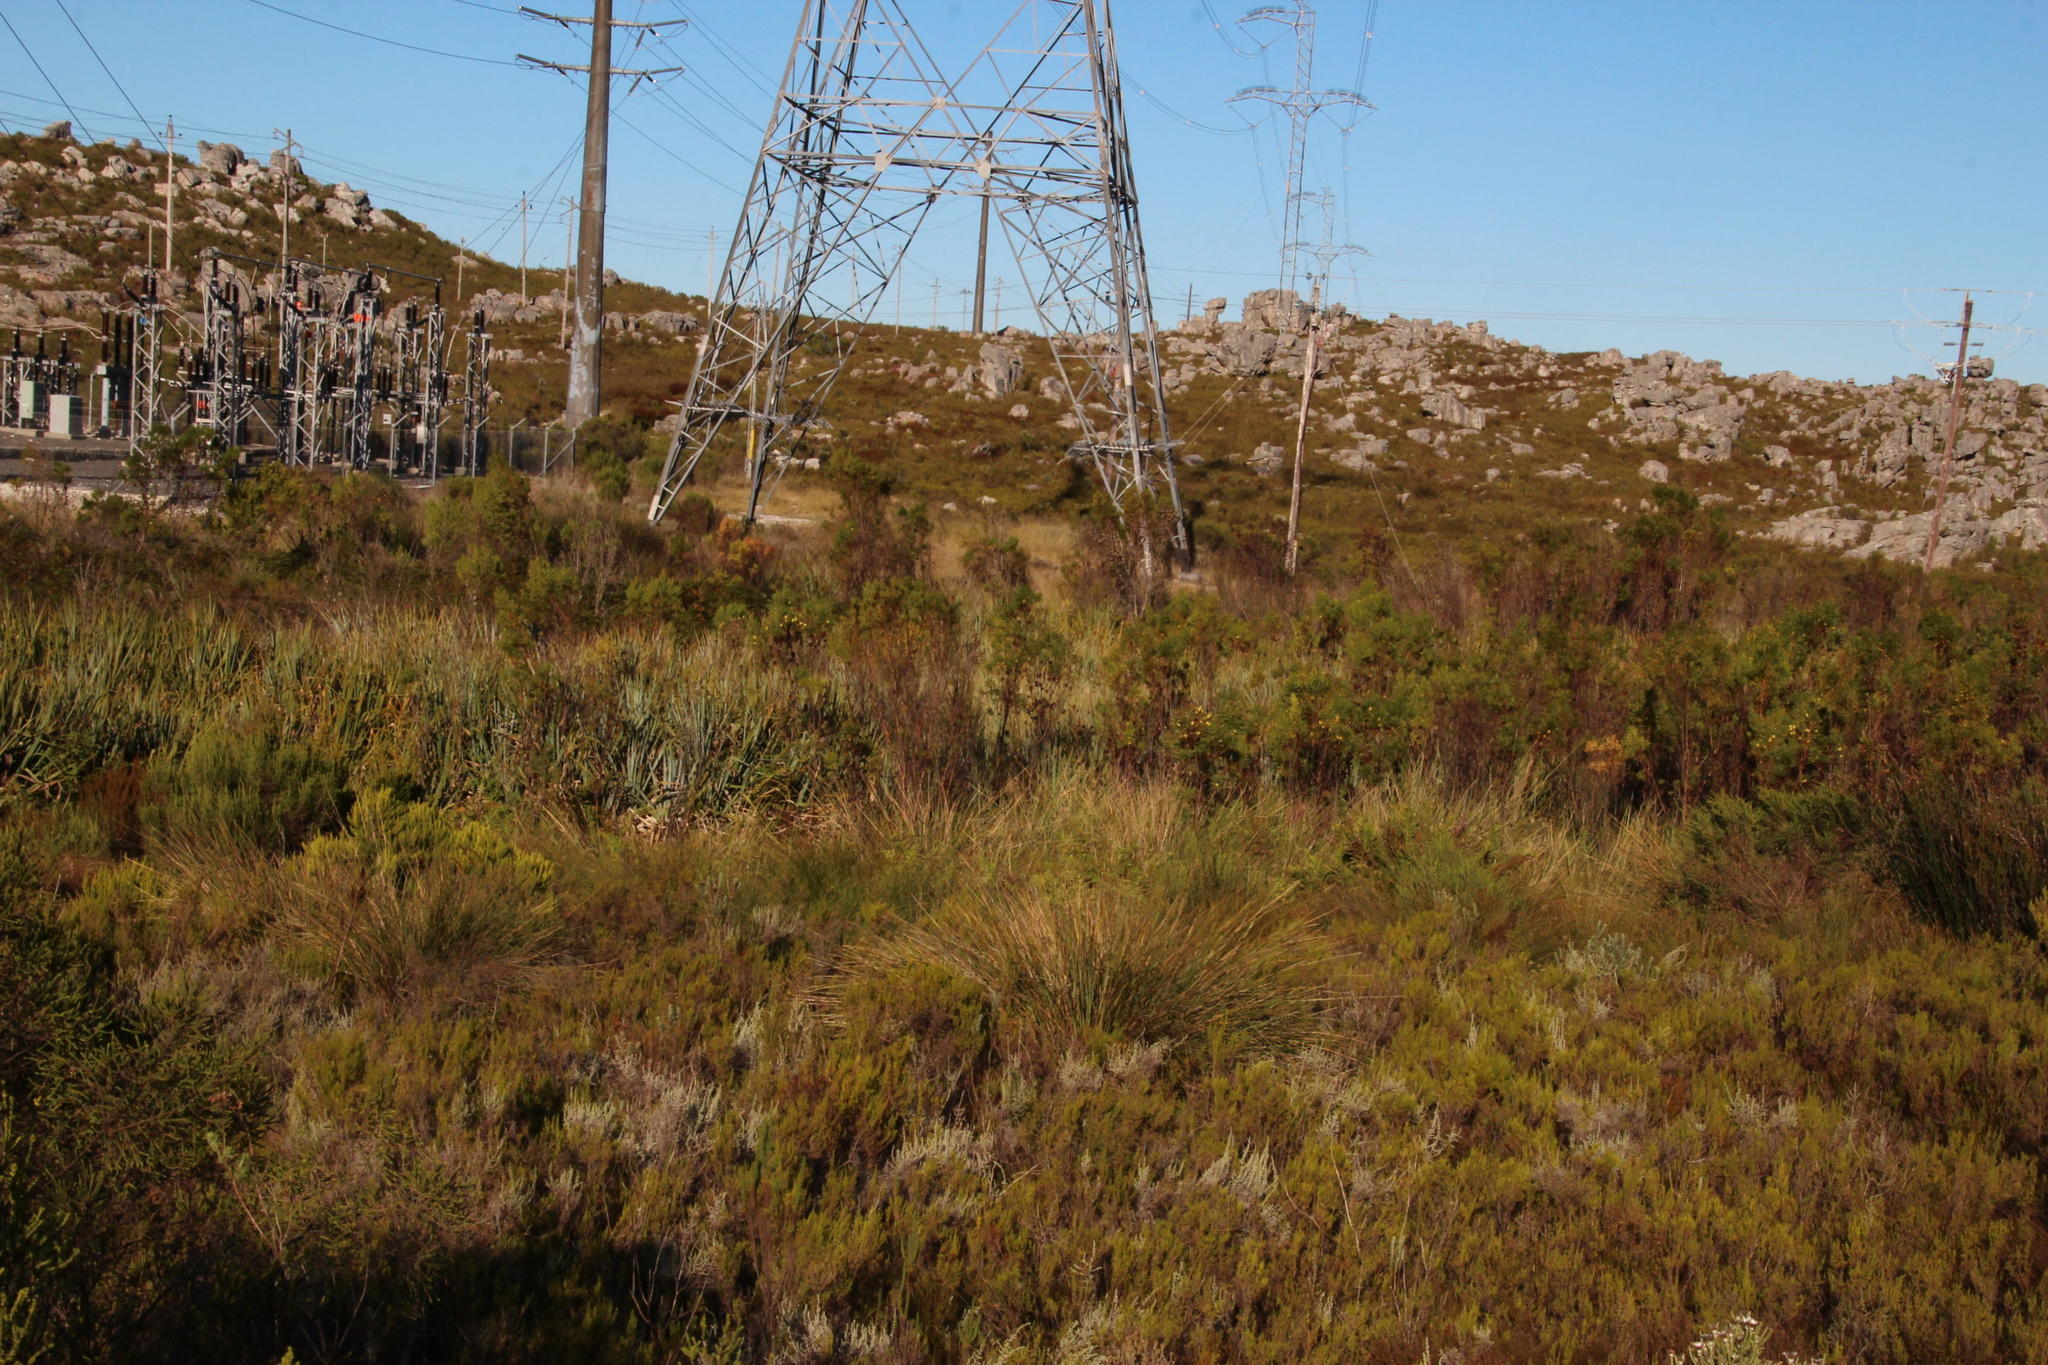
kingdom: Plantae
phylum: Tracheophyta
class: Magnoliopsida
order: Proteales
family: Proteaceae
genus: Leucadendron
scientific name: Leucadendron salicifolium
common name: Common stream conebush
